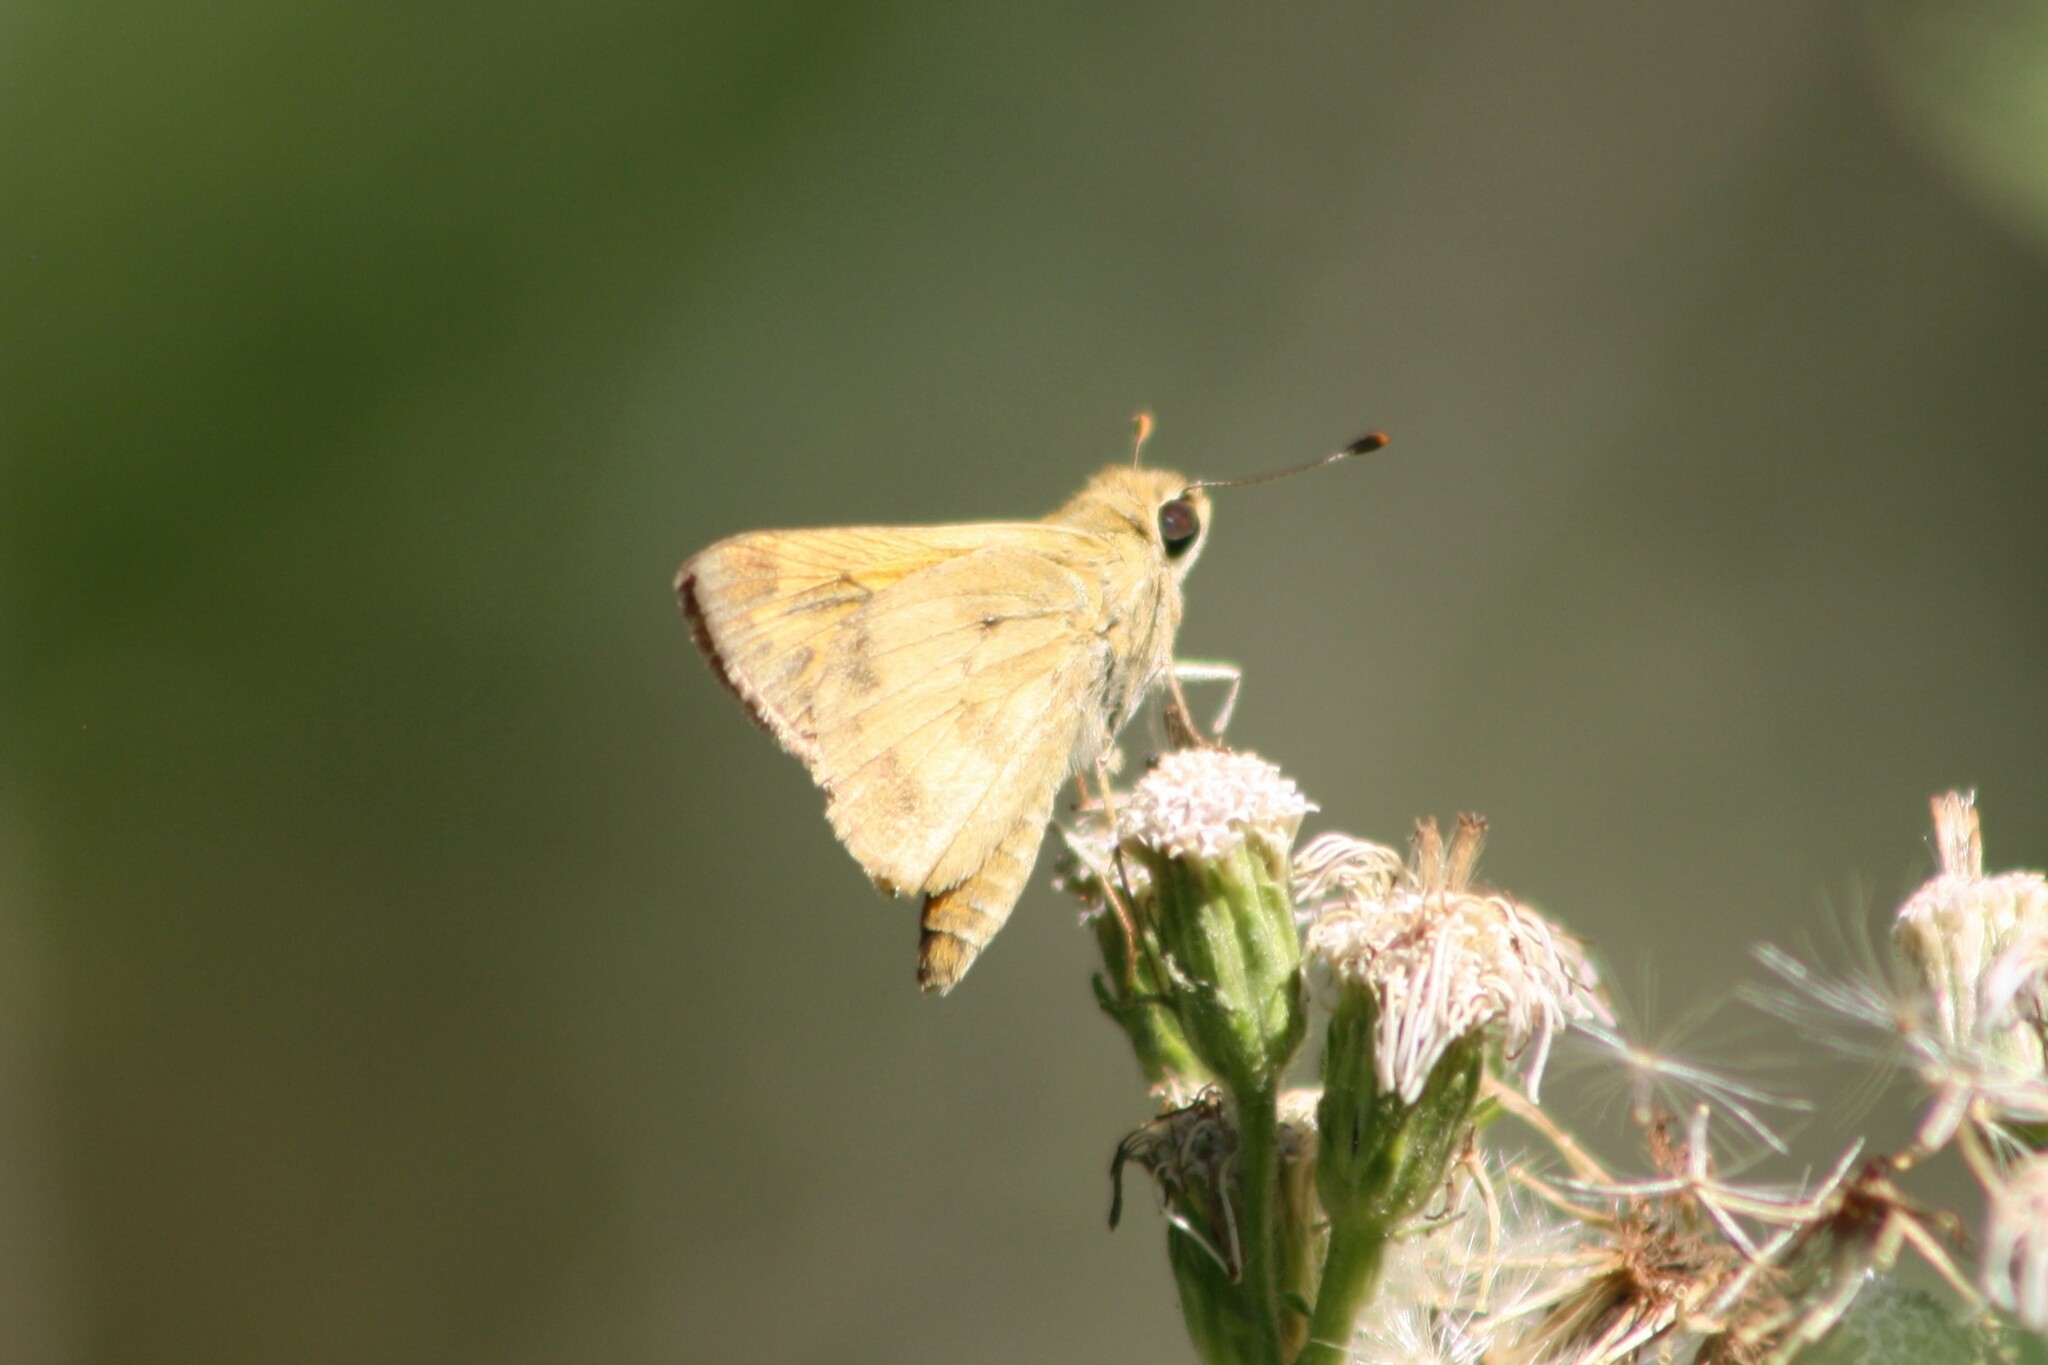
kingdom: Animalia
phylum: Arthropoda
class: Insecta
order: Lepidoptera
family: Hesperiidae
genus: Polites
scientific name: Polites vibex
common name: Whirlabout
